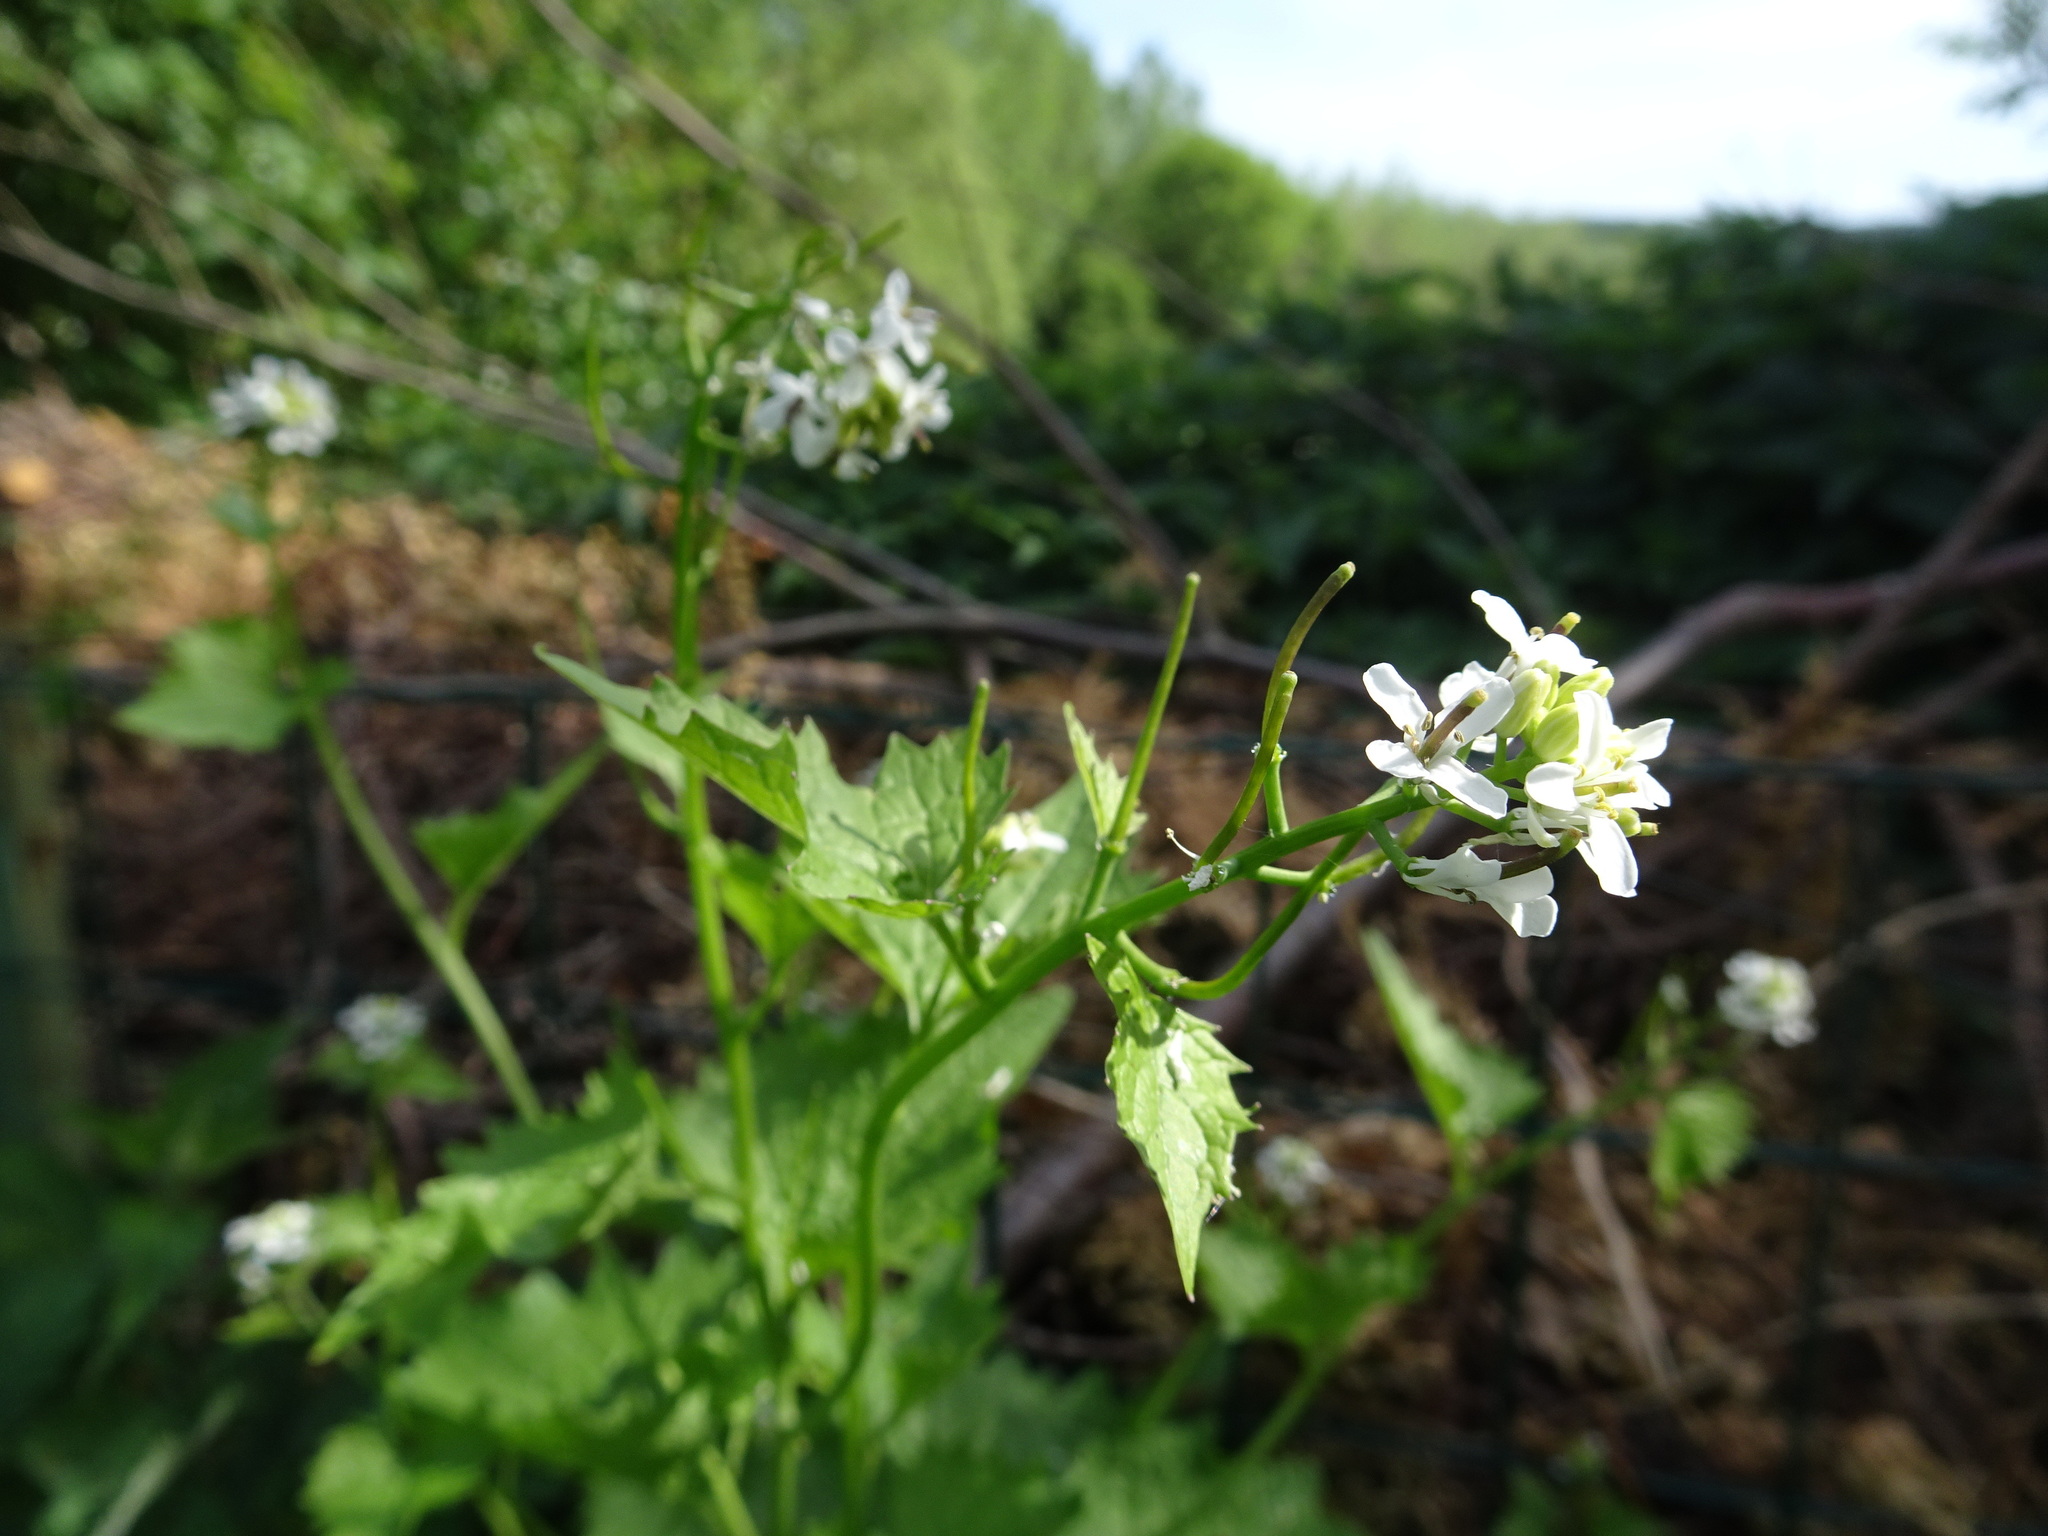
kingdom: Plantae
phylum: Tracheophyta
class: Magnoliopsida
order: Brassicales
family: Brassicaceae
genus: Alliaria
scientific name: Alliaria petiolata
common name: Garlic mustard
